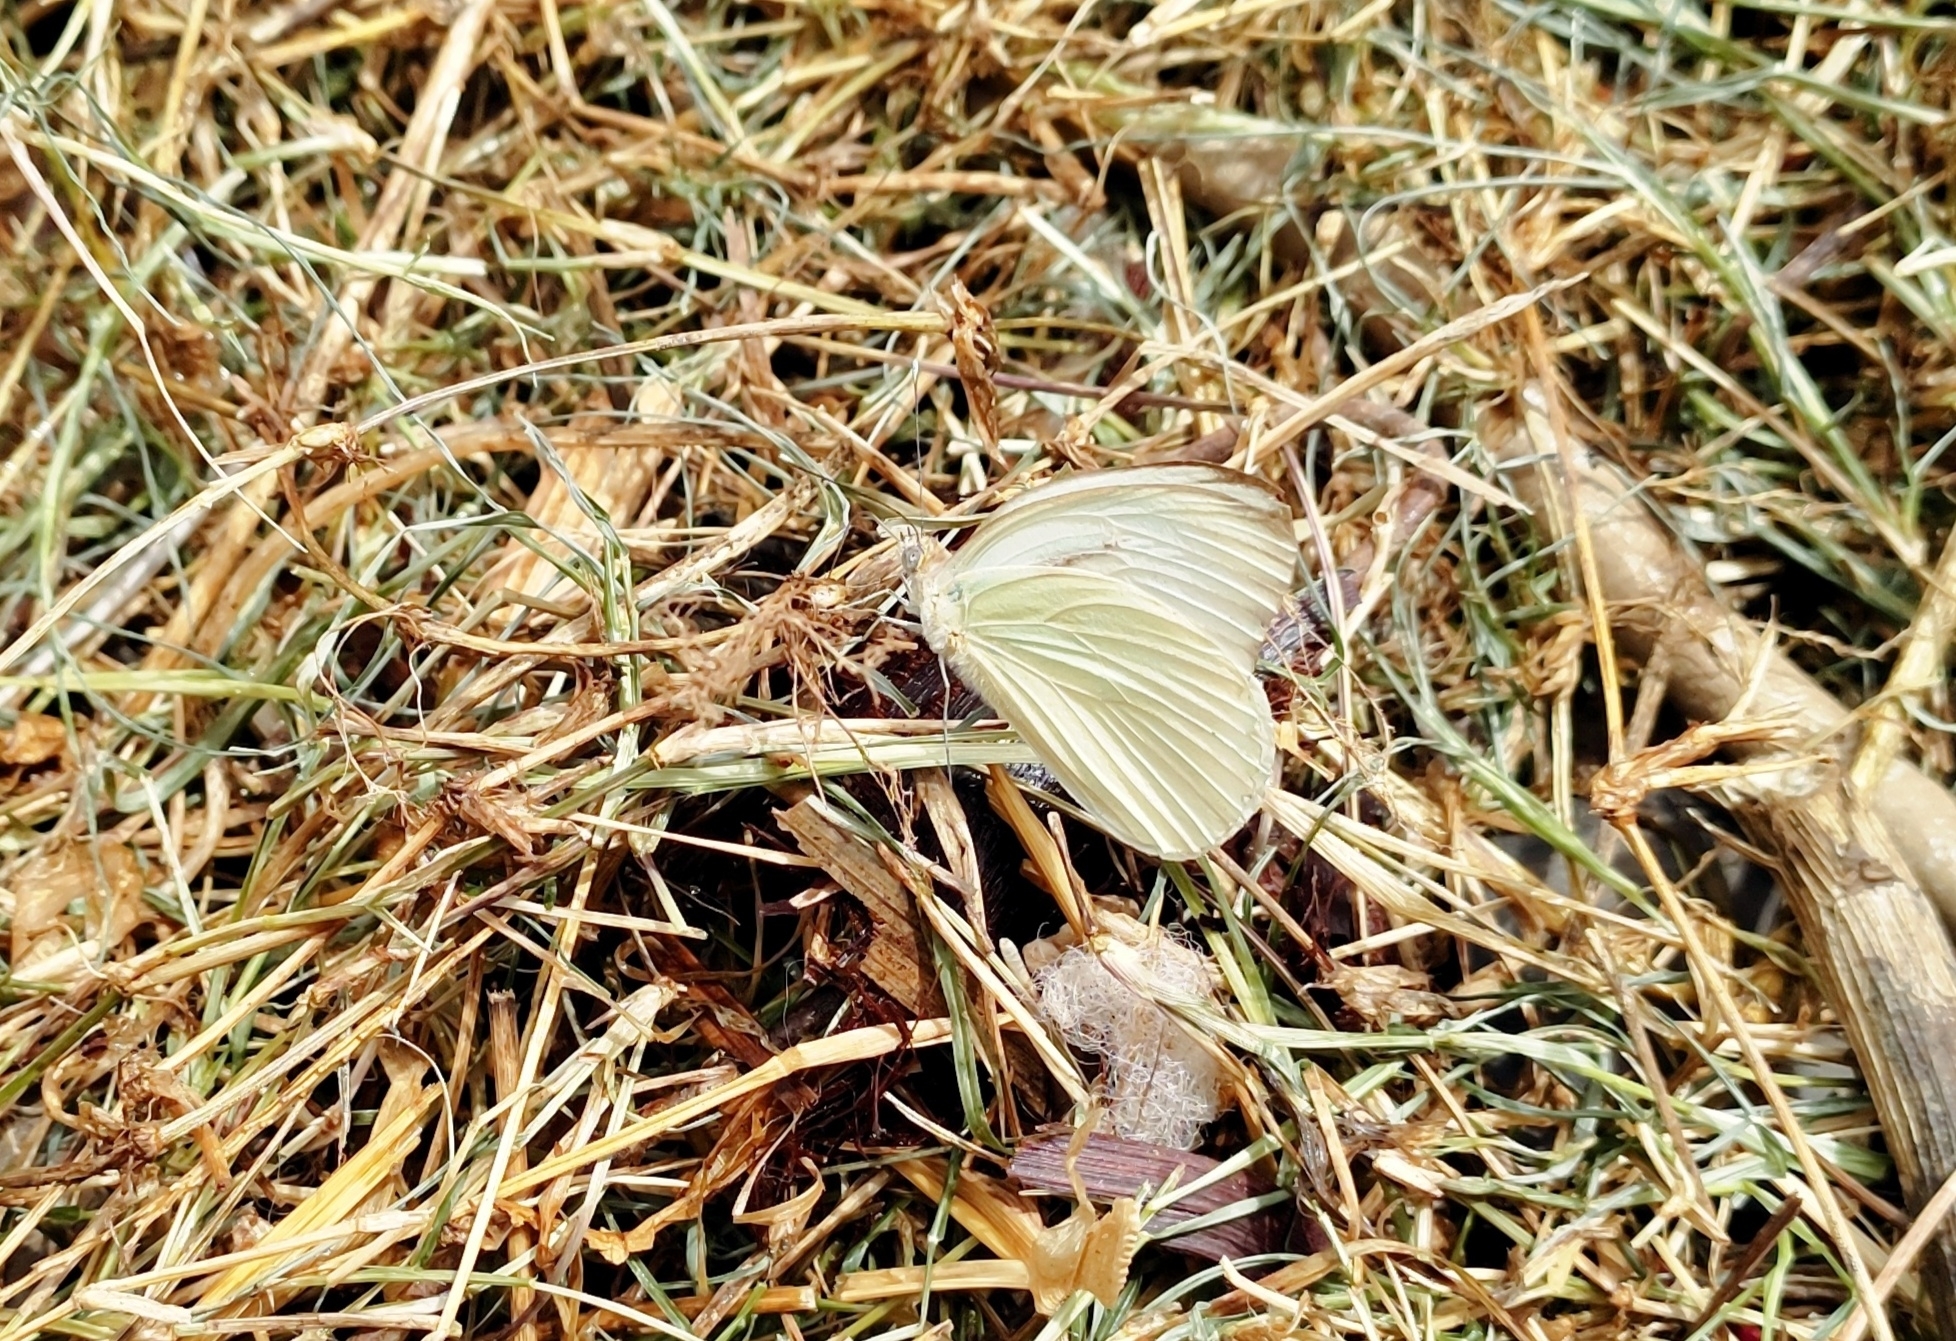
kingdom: Animalia
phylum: Arthropoda
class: Insecta
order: Lepidoptera
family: Pieridae
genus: Ascia
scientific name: Ascia monuste
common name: Great southern white
